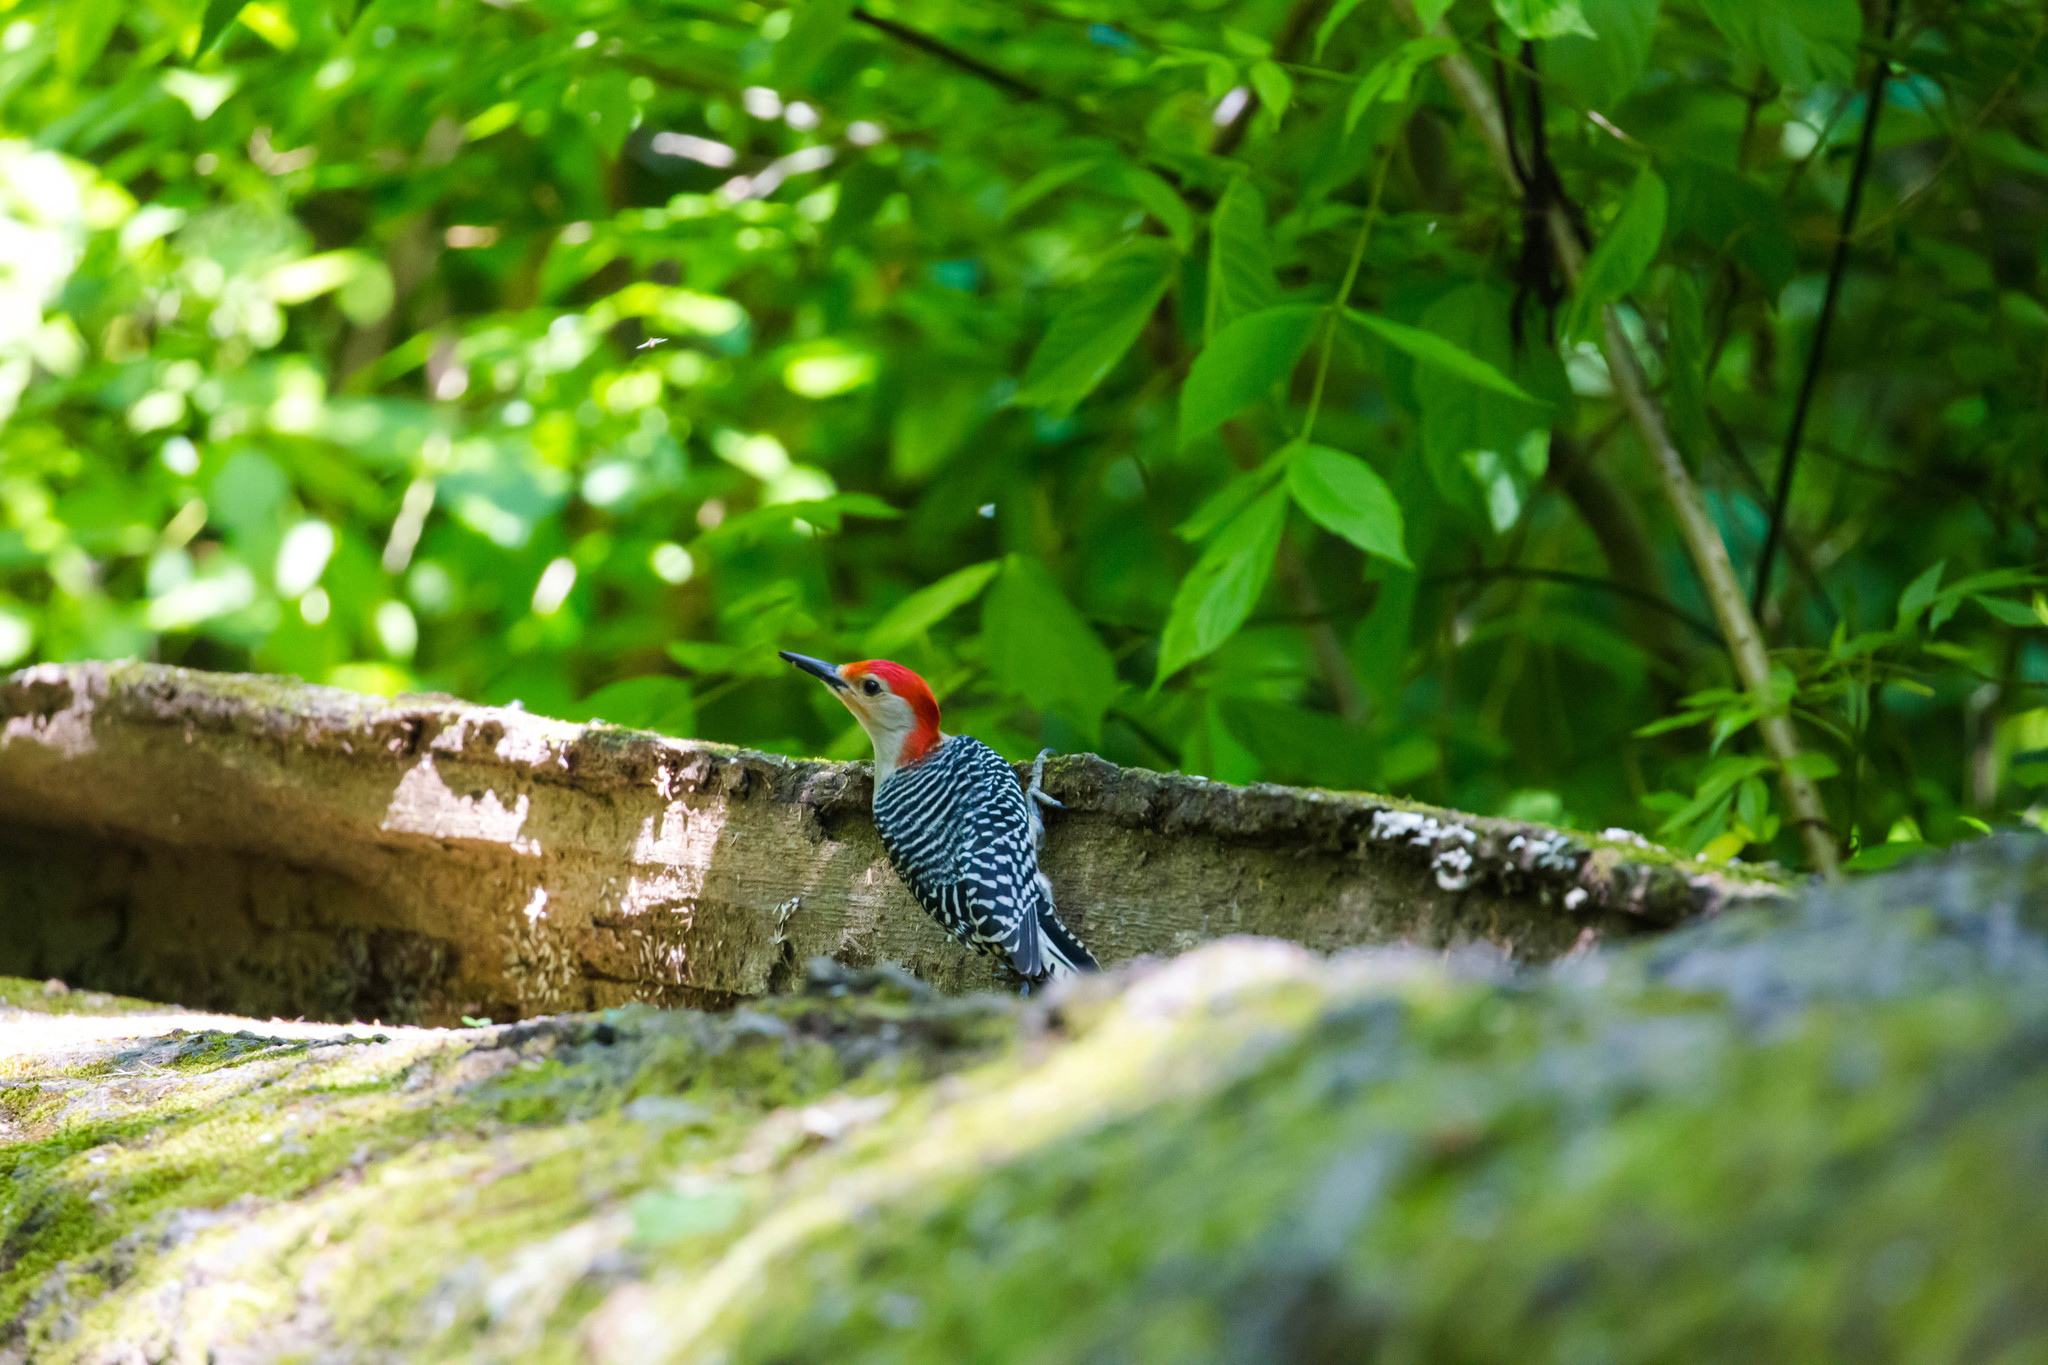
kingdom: Animalia
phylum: Chordata
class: Aves
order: Piciformes
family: Picidae
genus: Melanerpes
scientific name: Melanerpes carolinus
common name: Red-bellied woodpecker
